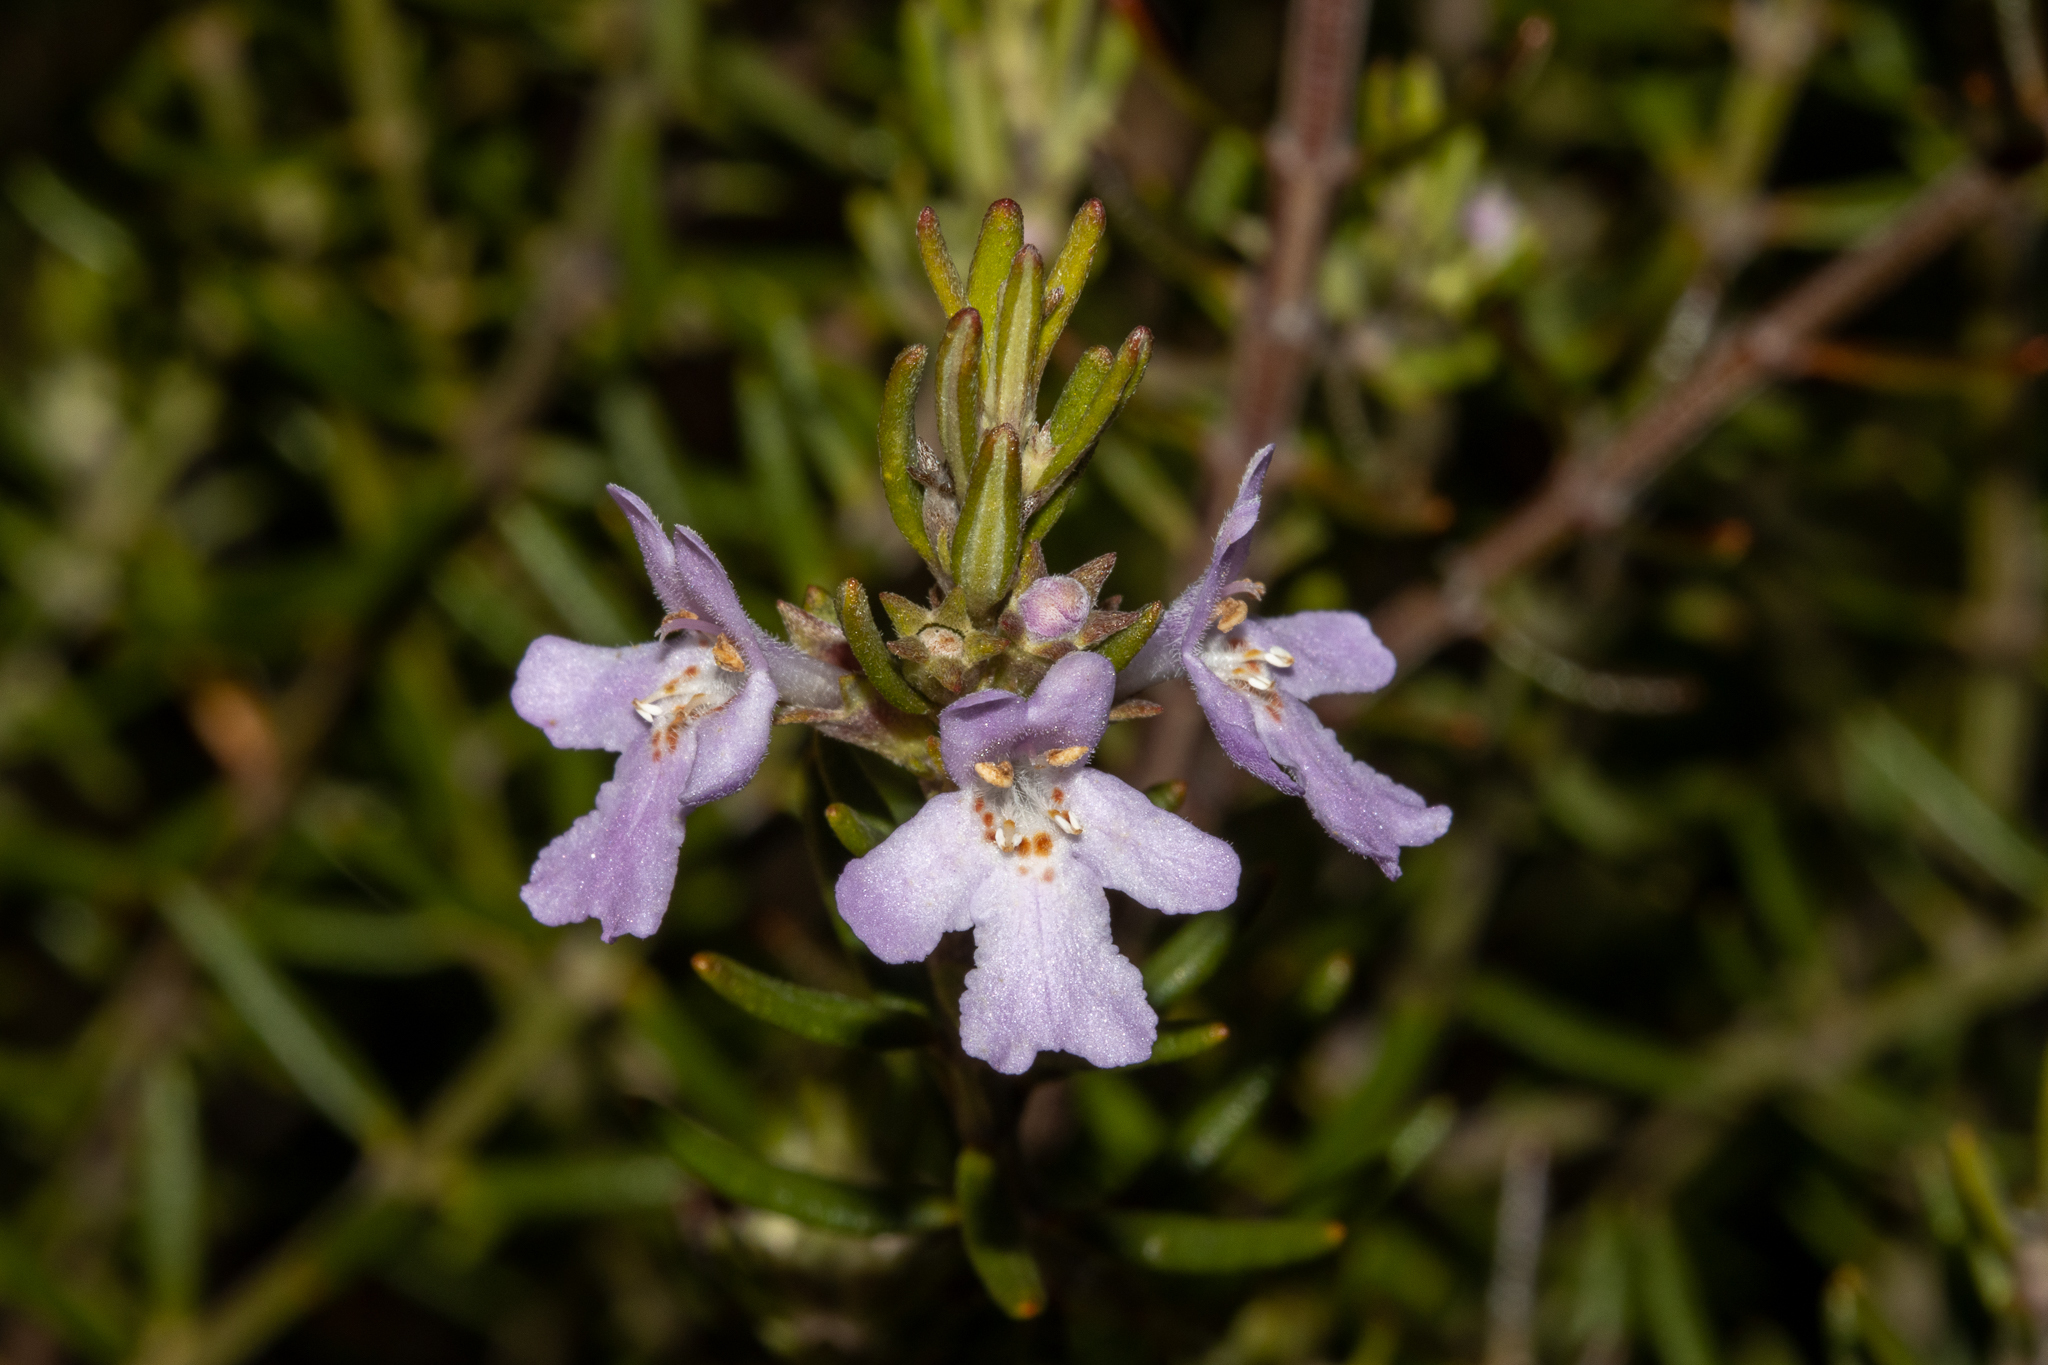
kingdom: Plantae
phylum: Tracheophyta
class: Magnoliopsida
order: Lamiales
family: Lamiaceae
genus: Westringia
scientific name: Westringia eremicola
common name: Slender western-rosemary
